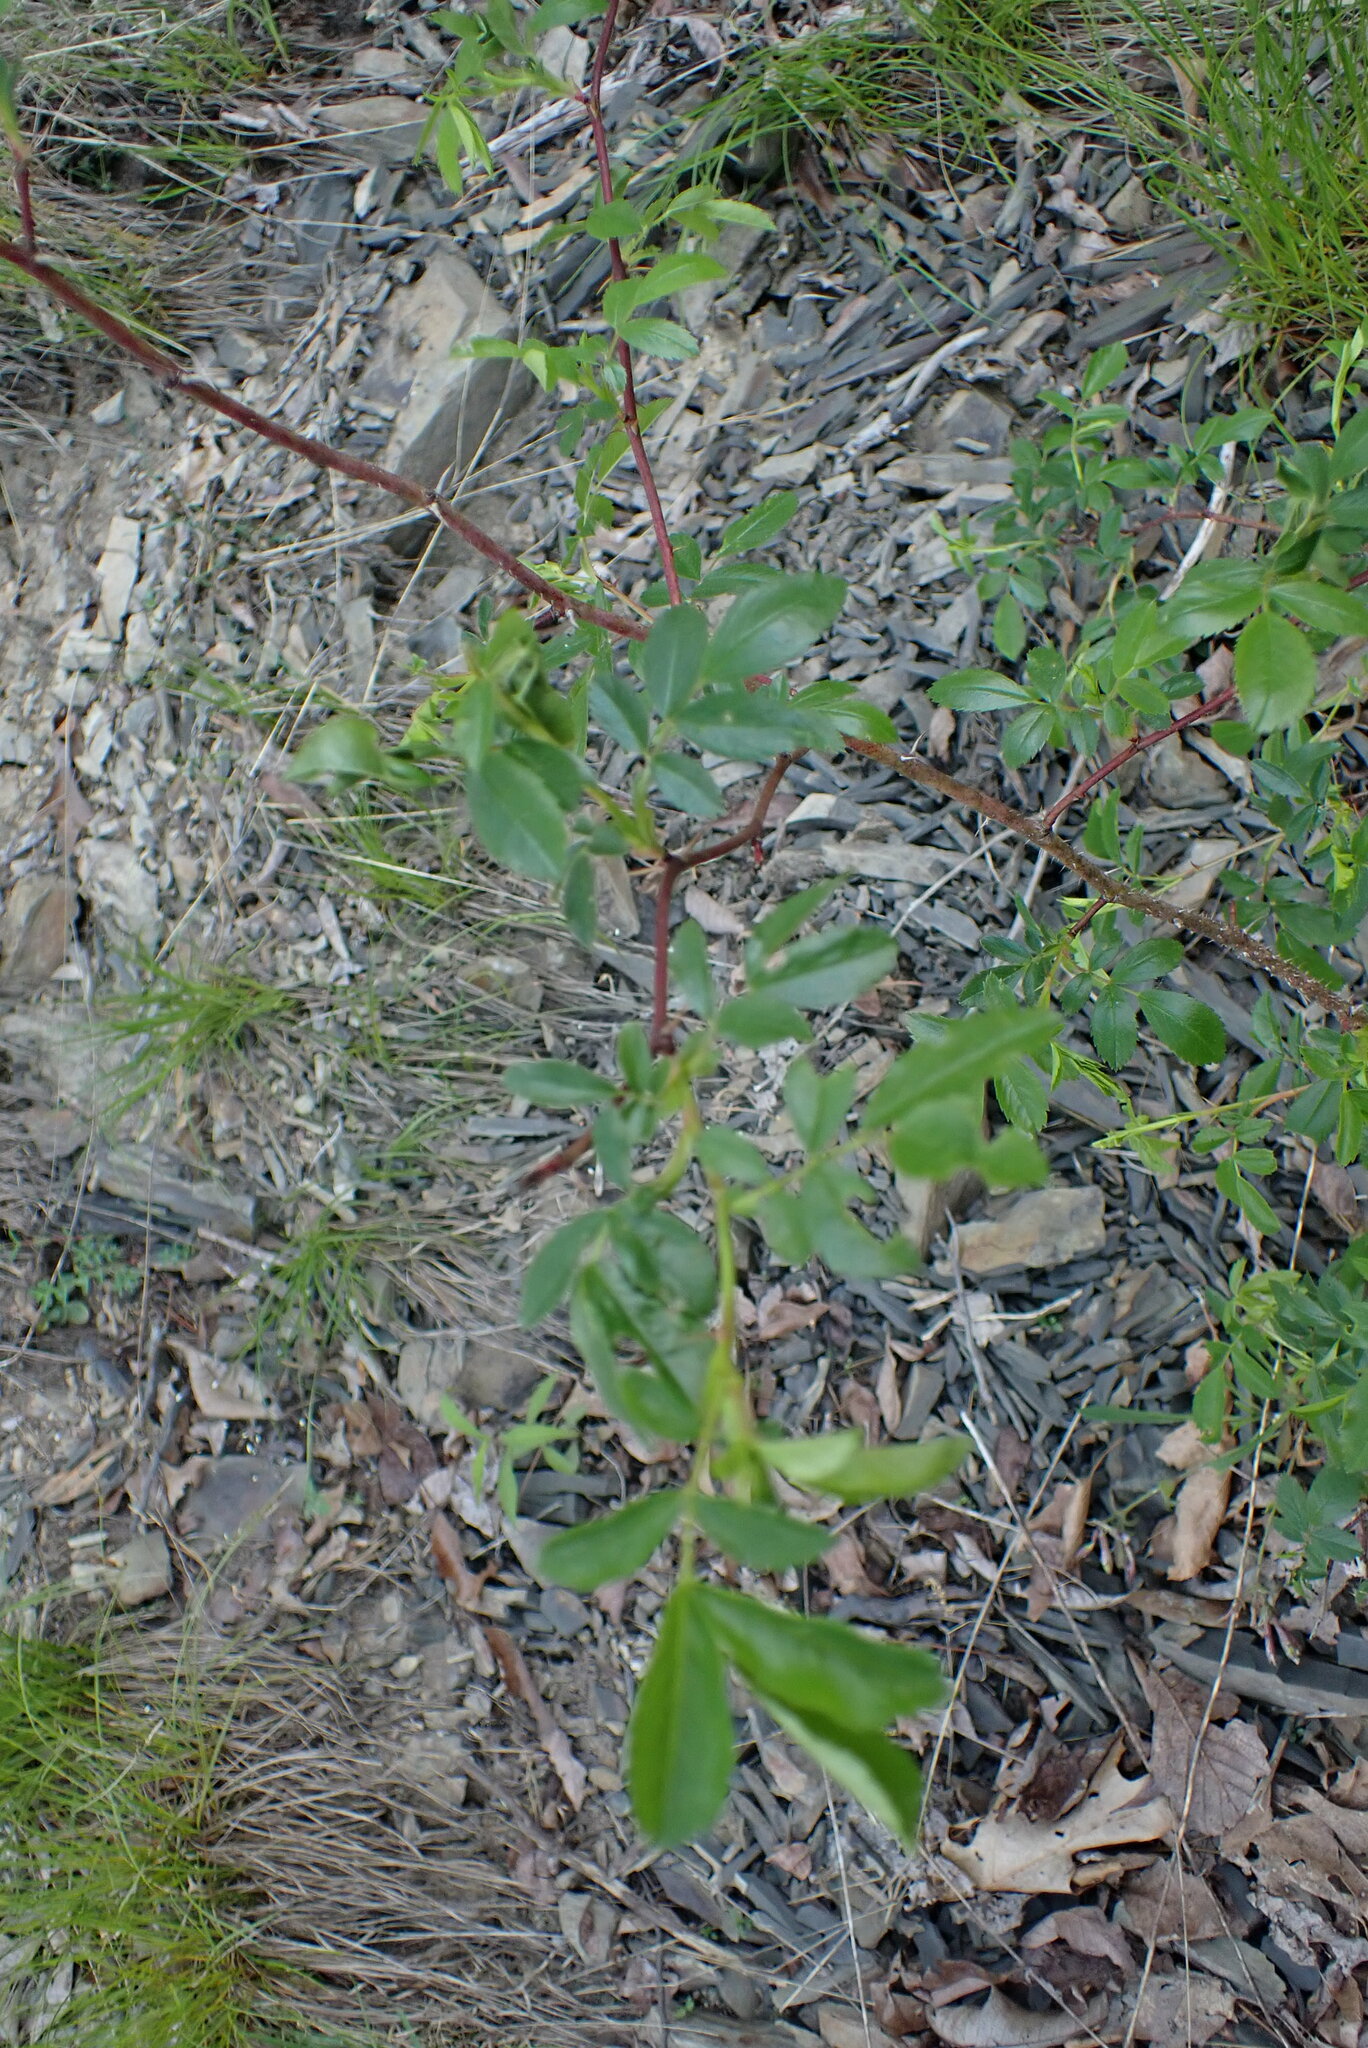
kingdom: Plantae
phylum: Tracheophyta
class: Magnoliopsida
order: Rosales
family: Rosaceae
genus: Rosa
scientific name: Rosa multiflora
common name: Multiflora rose
